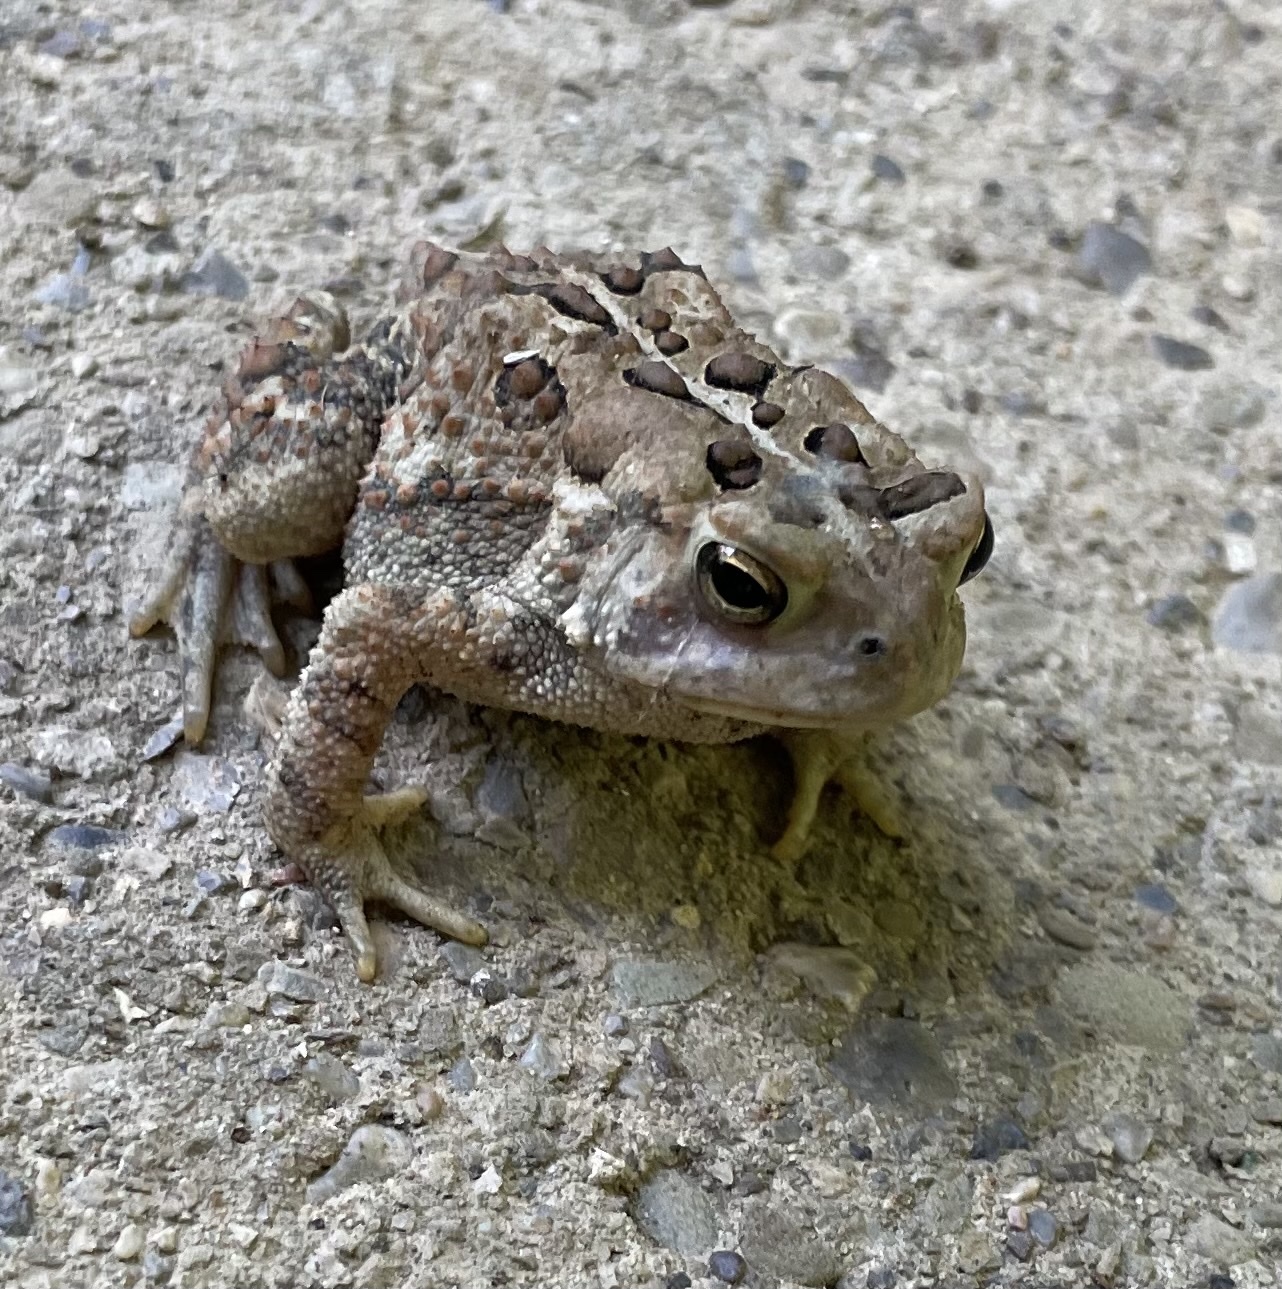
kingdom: Animalia
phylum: Chordata
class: Amphibia
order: Anura
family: Bufonidae
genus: Anaxyrus
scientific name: Anaxyrus americanus
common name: American toad
